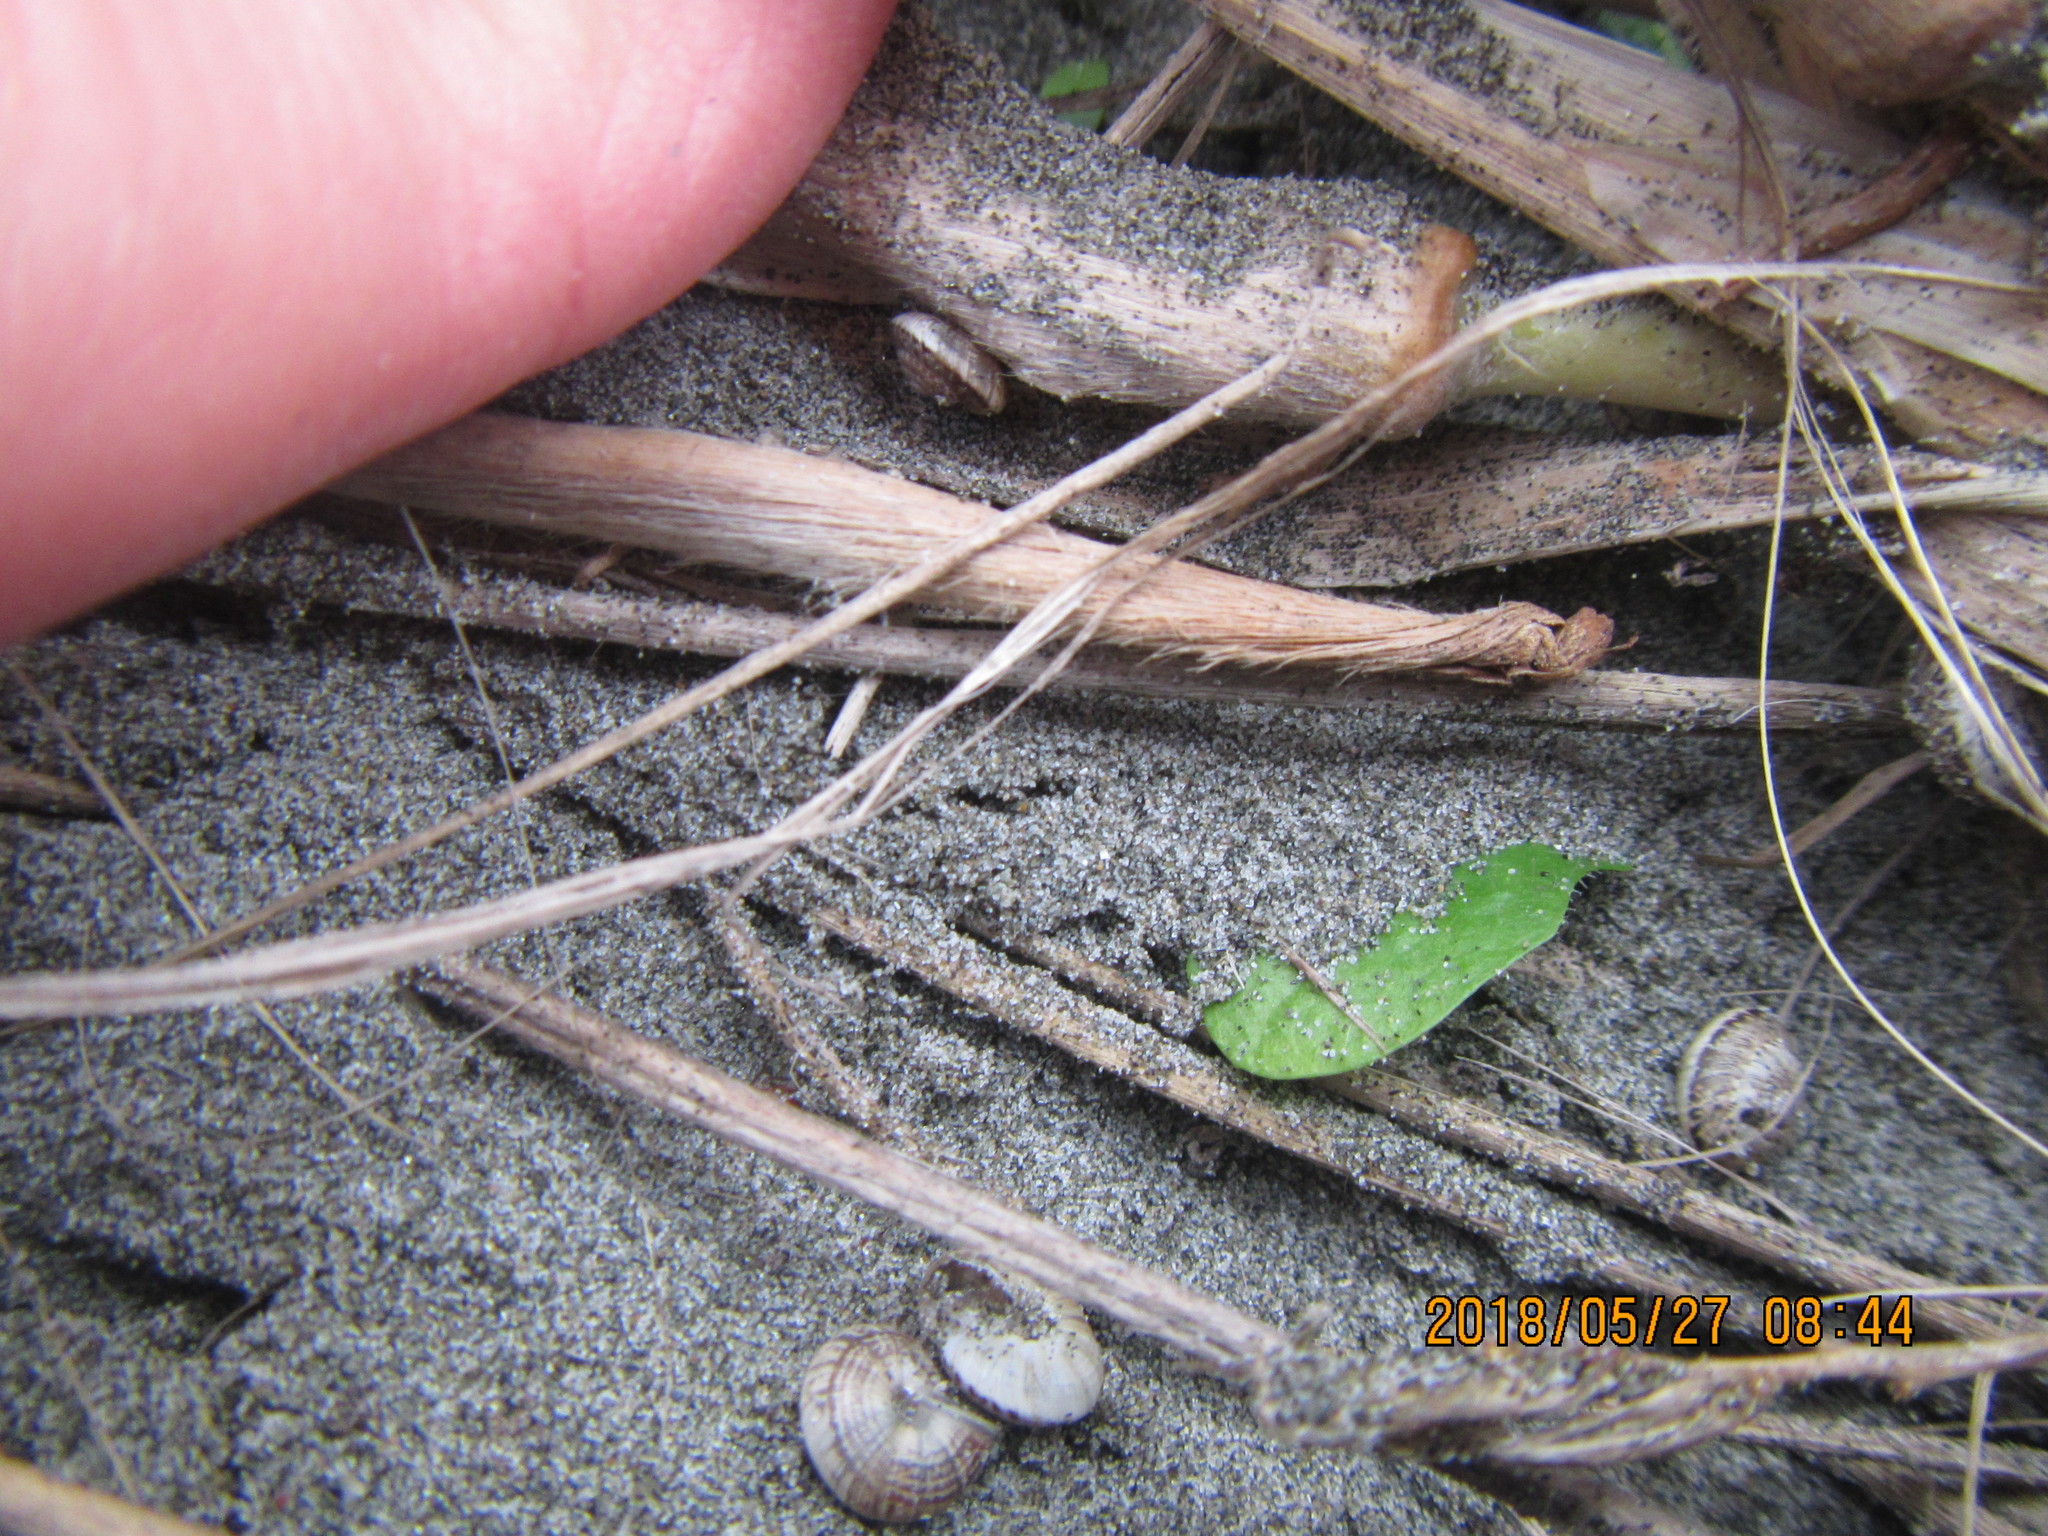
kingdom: Animalia
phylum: Mollusca
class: Gastropoda
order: Stylommatophora
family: Geomitridae
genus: Xeroplexa
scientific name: Xeroplexa intersecta
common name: Wrinkled snail
